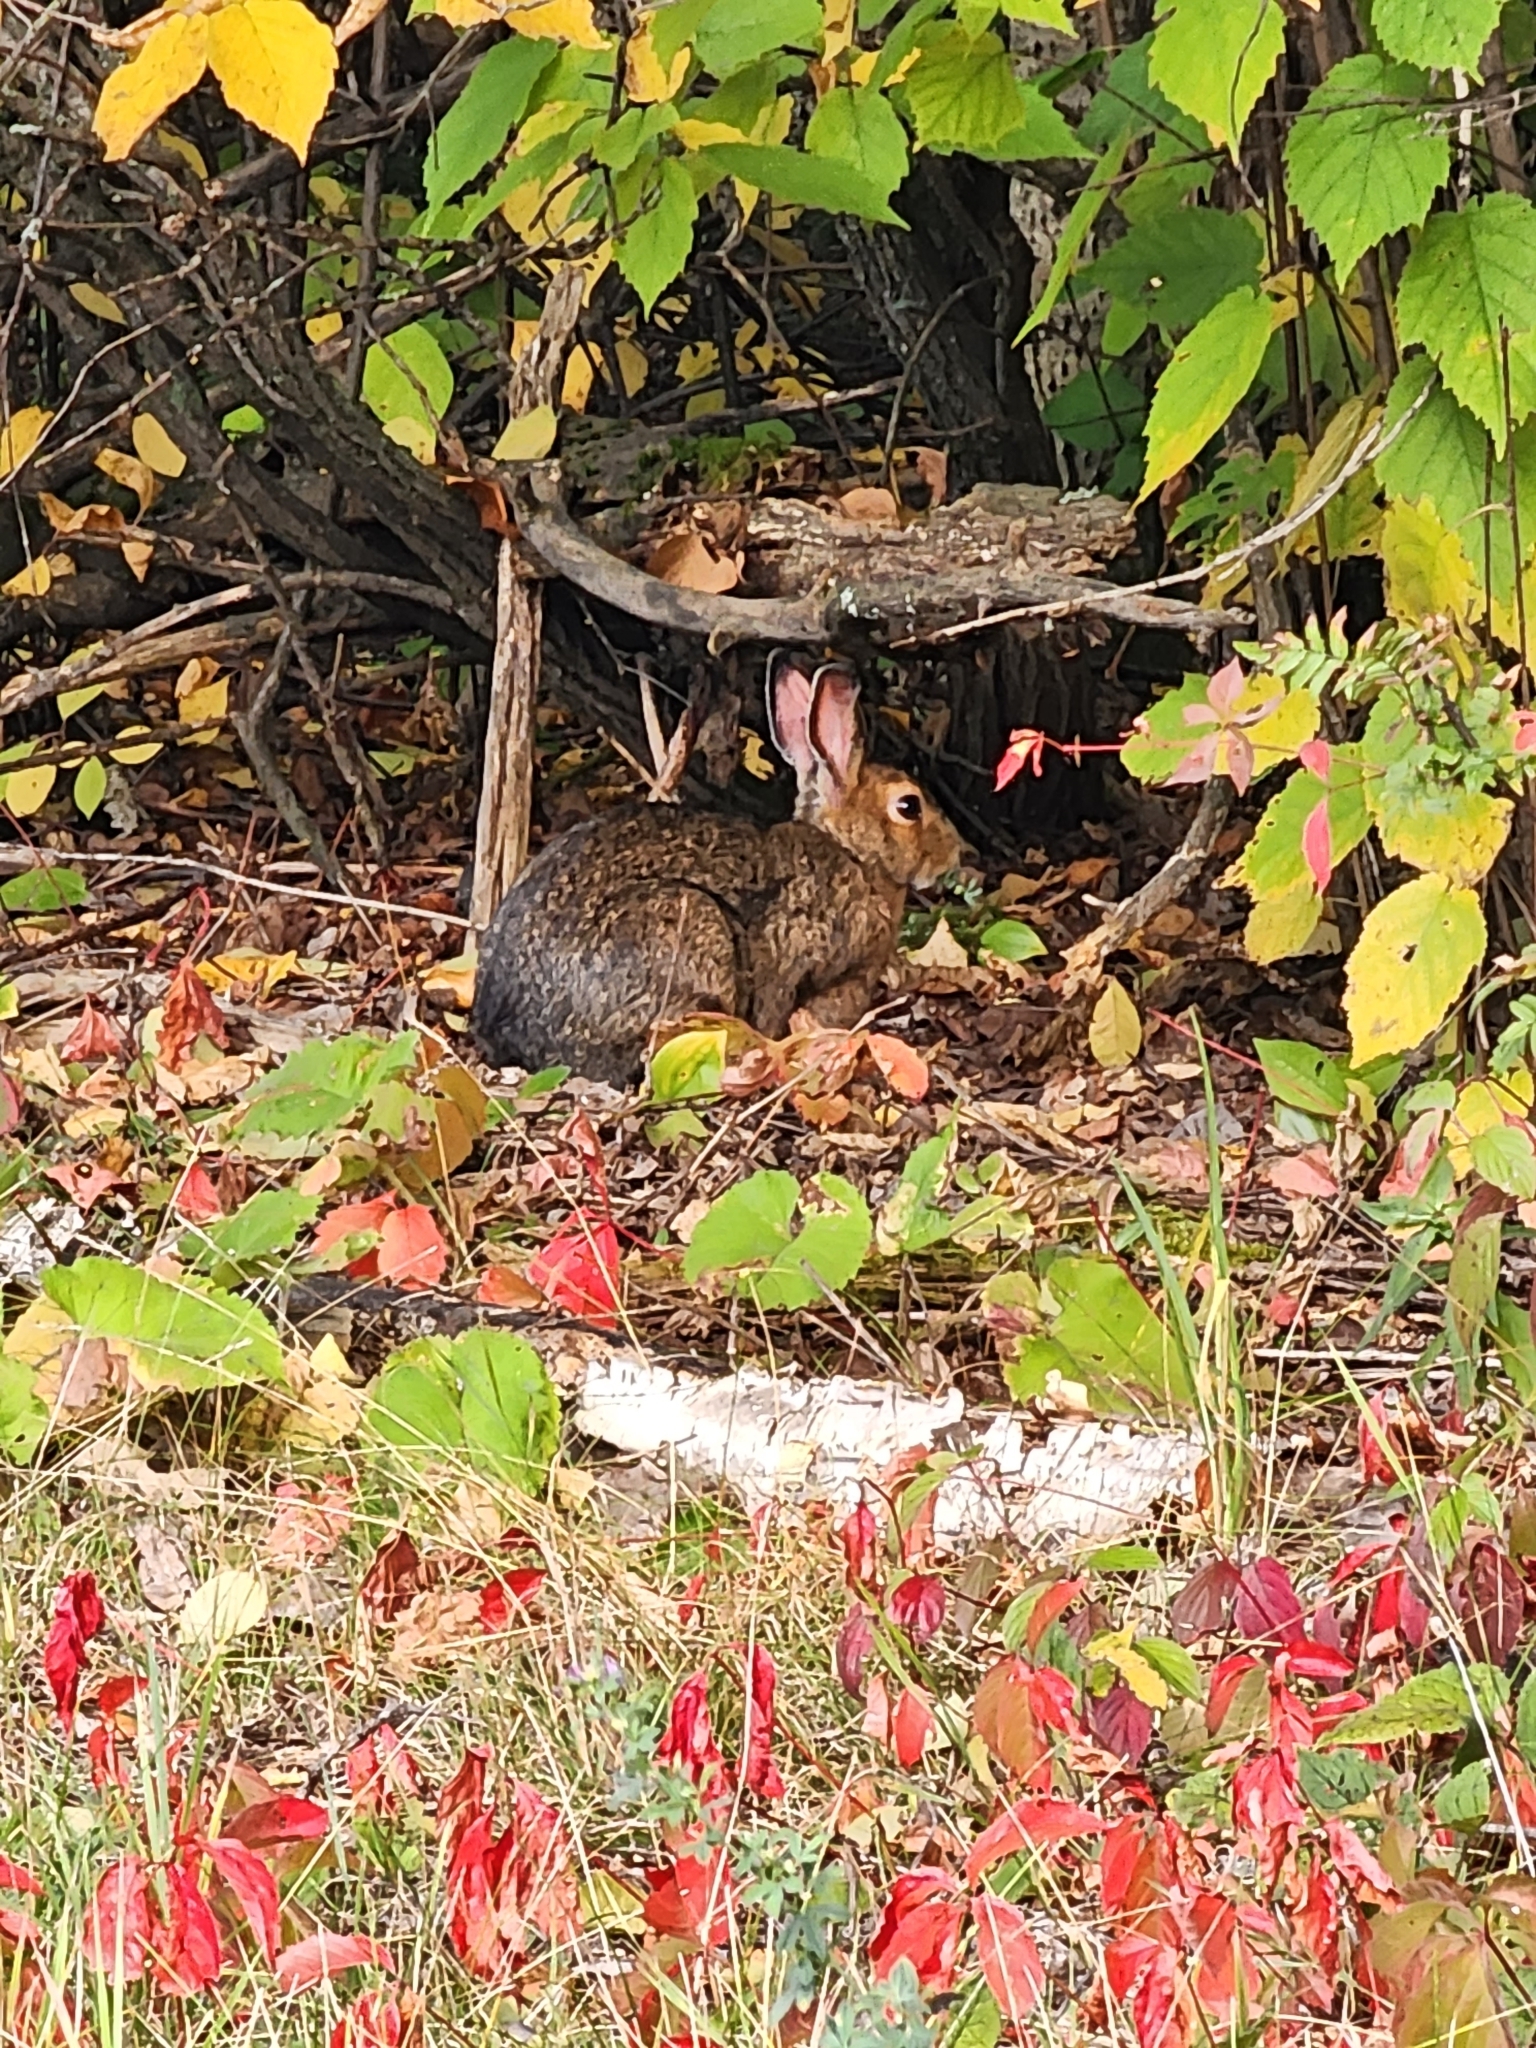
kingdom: Animalia
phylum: Chordata
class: Mammalia
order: Lagomorpha
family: Leporidae
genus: Lepus
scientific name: Lepus americanus
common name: Snowshoe hare
